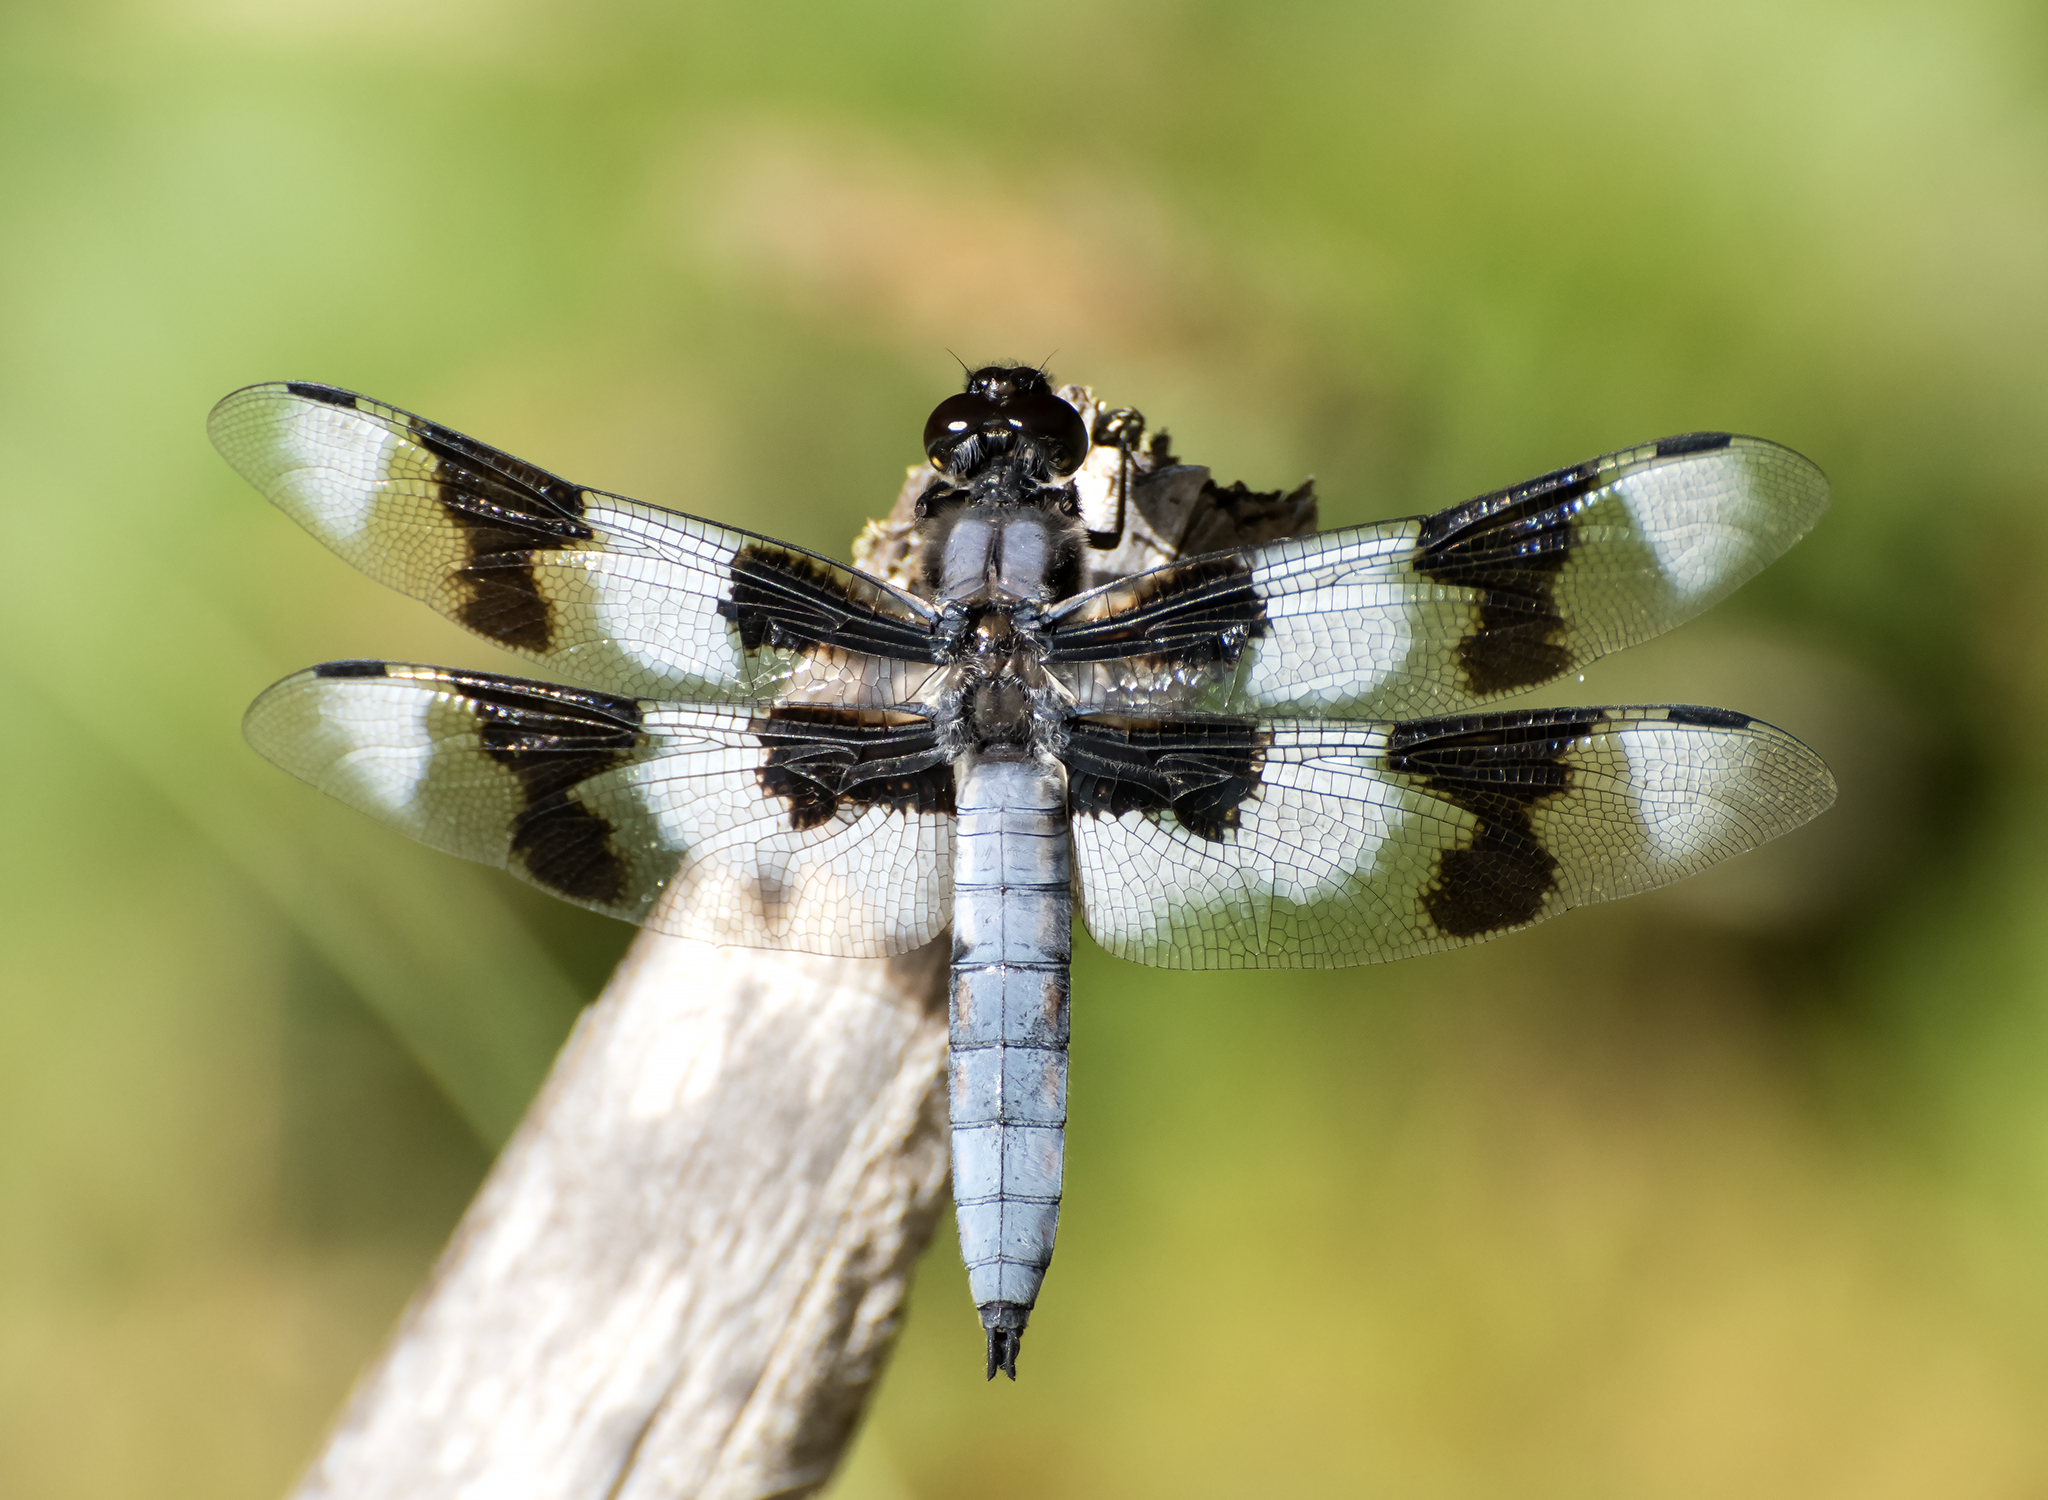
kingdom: Animalia
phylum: Arthropoda
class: Insecta
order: Odonata
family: Libellulidae
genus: Libellula
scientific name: Libellula forensis
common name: Eight-spotted skimmer
